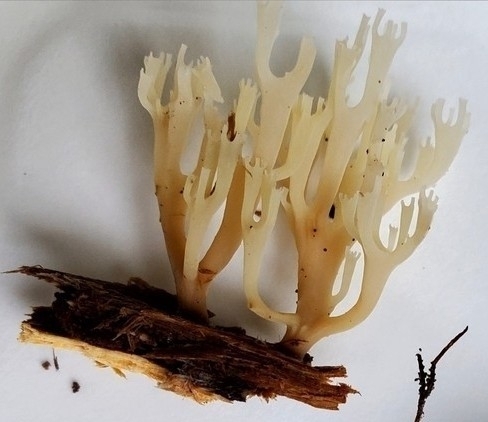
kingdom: Fungi
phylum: Basidiomycota
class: Agaricomycetes
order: Russulales
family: Auriscalpiaceae
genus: Artomyces
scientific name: Artomyces pyxidatus
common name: Crown-tipped coral fungus
